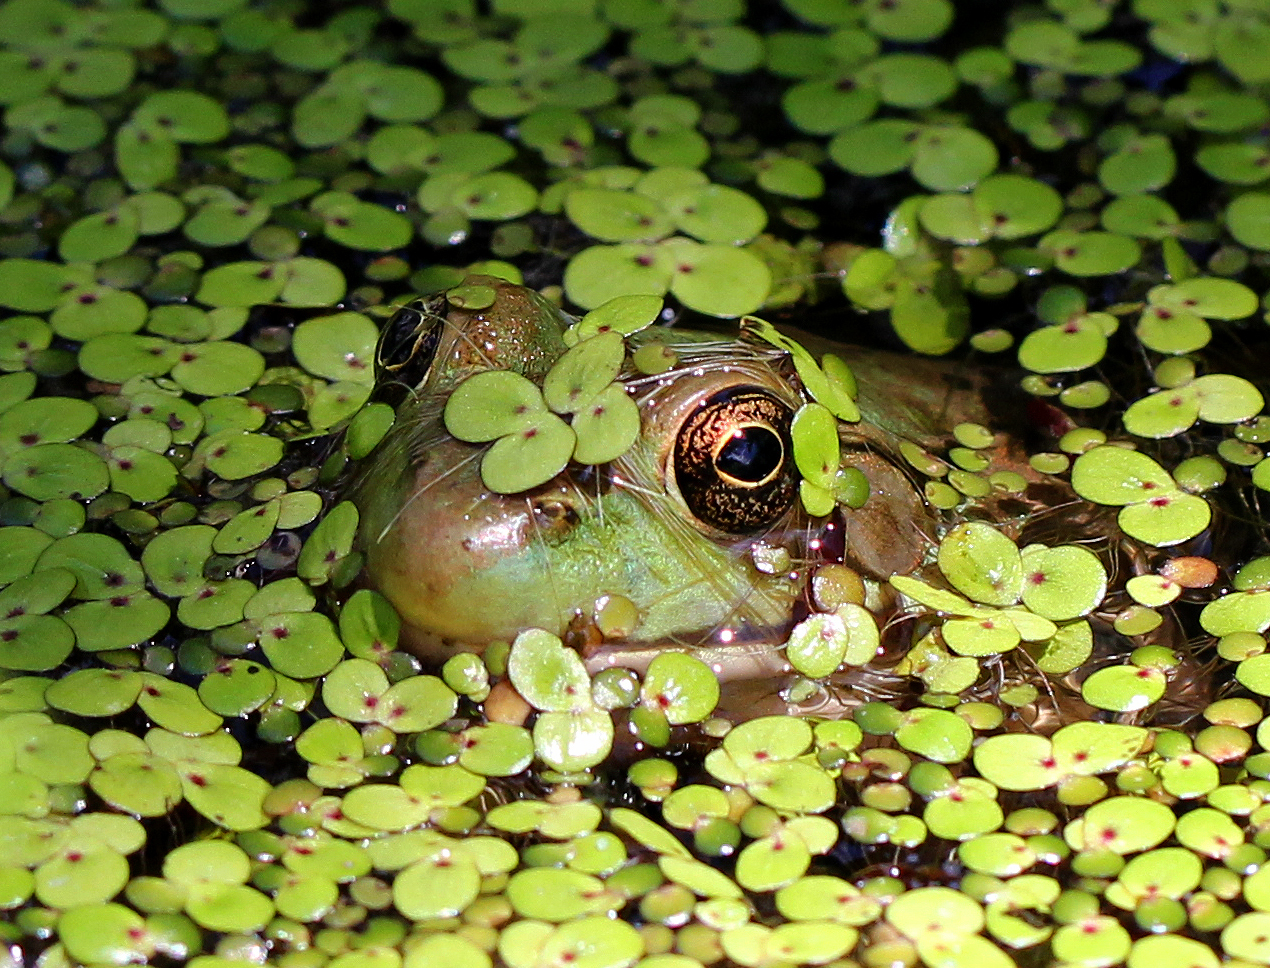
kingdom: Animalia
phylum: Chordata
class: Amphibia
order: Anura
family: Ranidae
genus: Lithobates
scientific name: Lithobates clamitans
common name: Green frog
